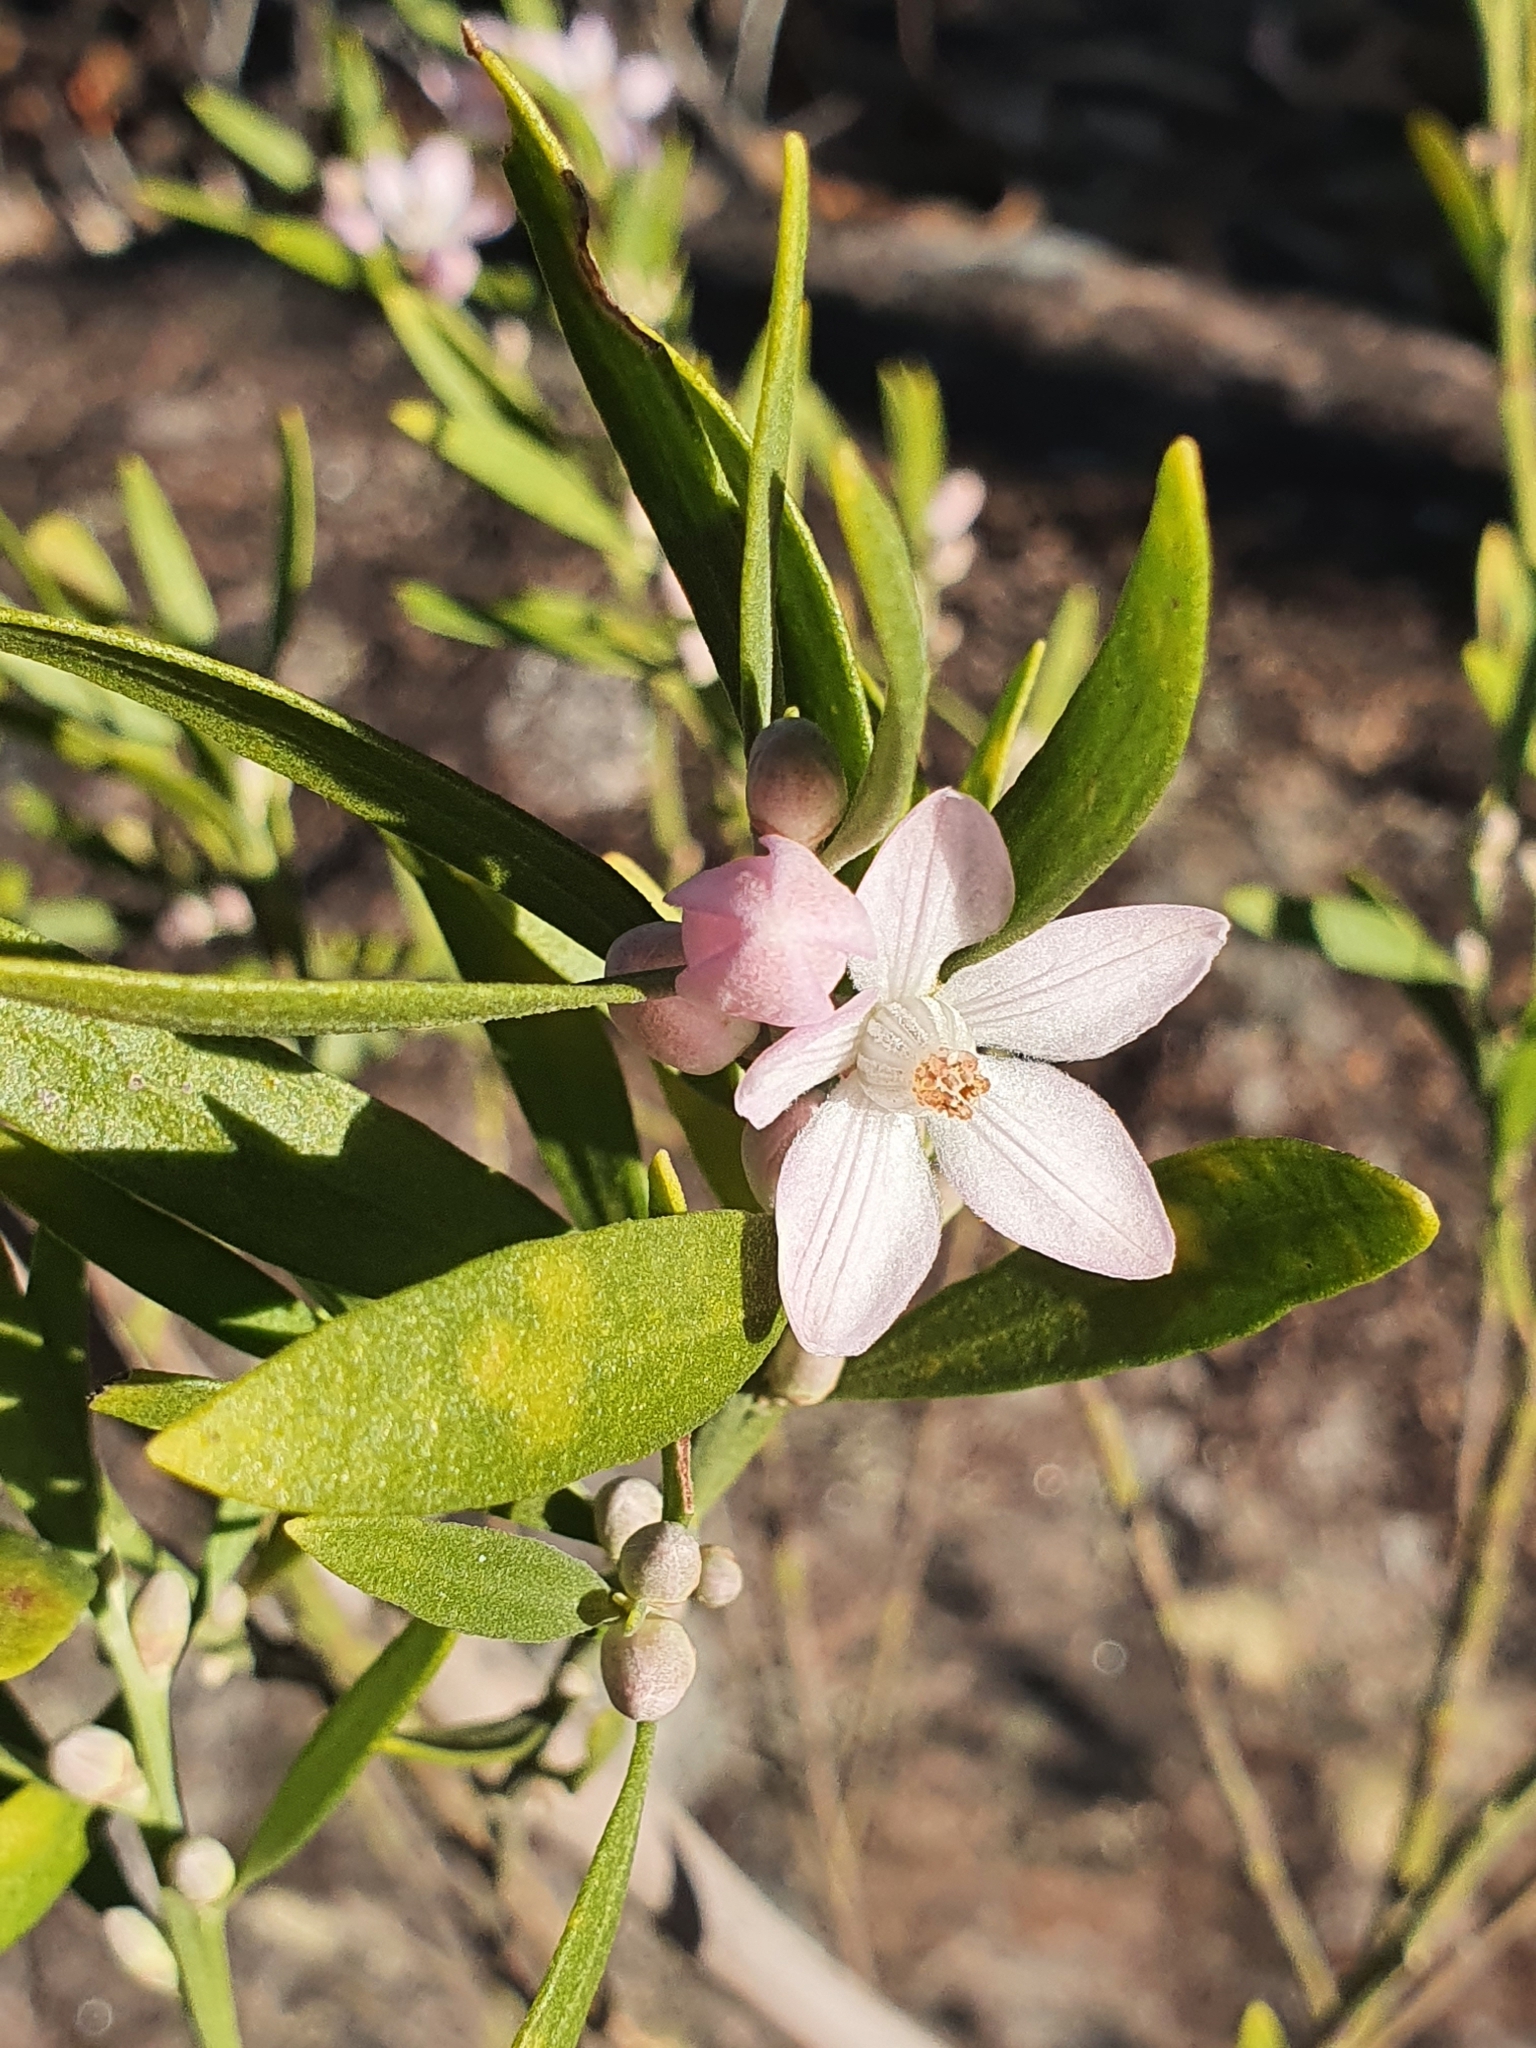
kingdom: Plantae
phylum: Tracheophyta
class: Magnoliopsida
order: Sapindales
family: Rutaceae
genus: Eriostemon
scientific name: Eriostemon australasius
